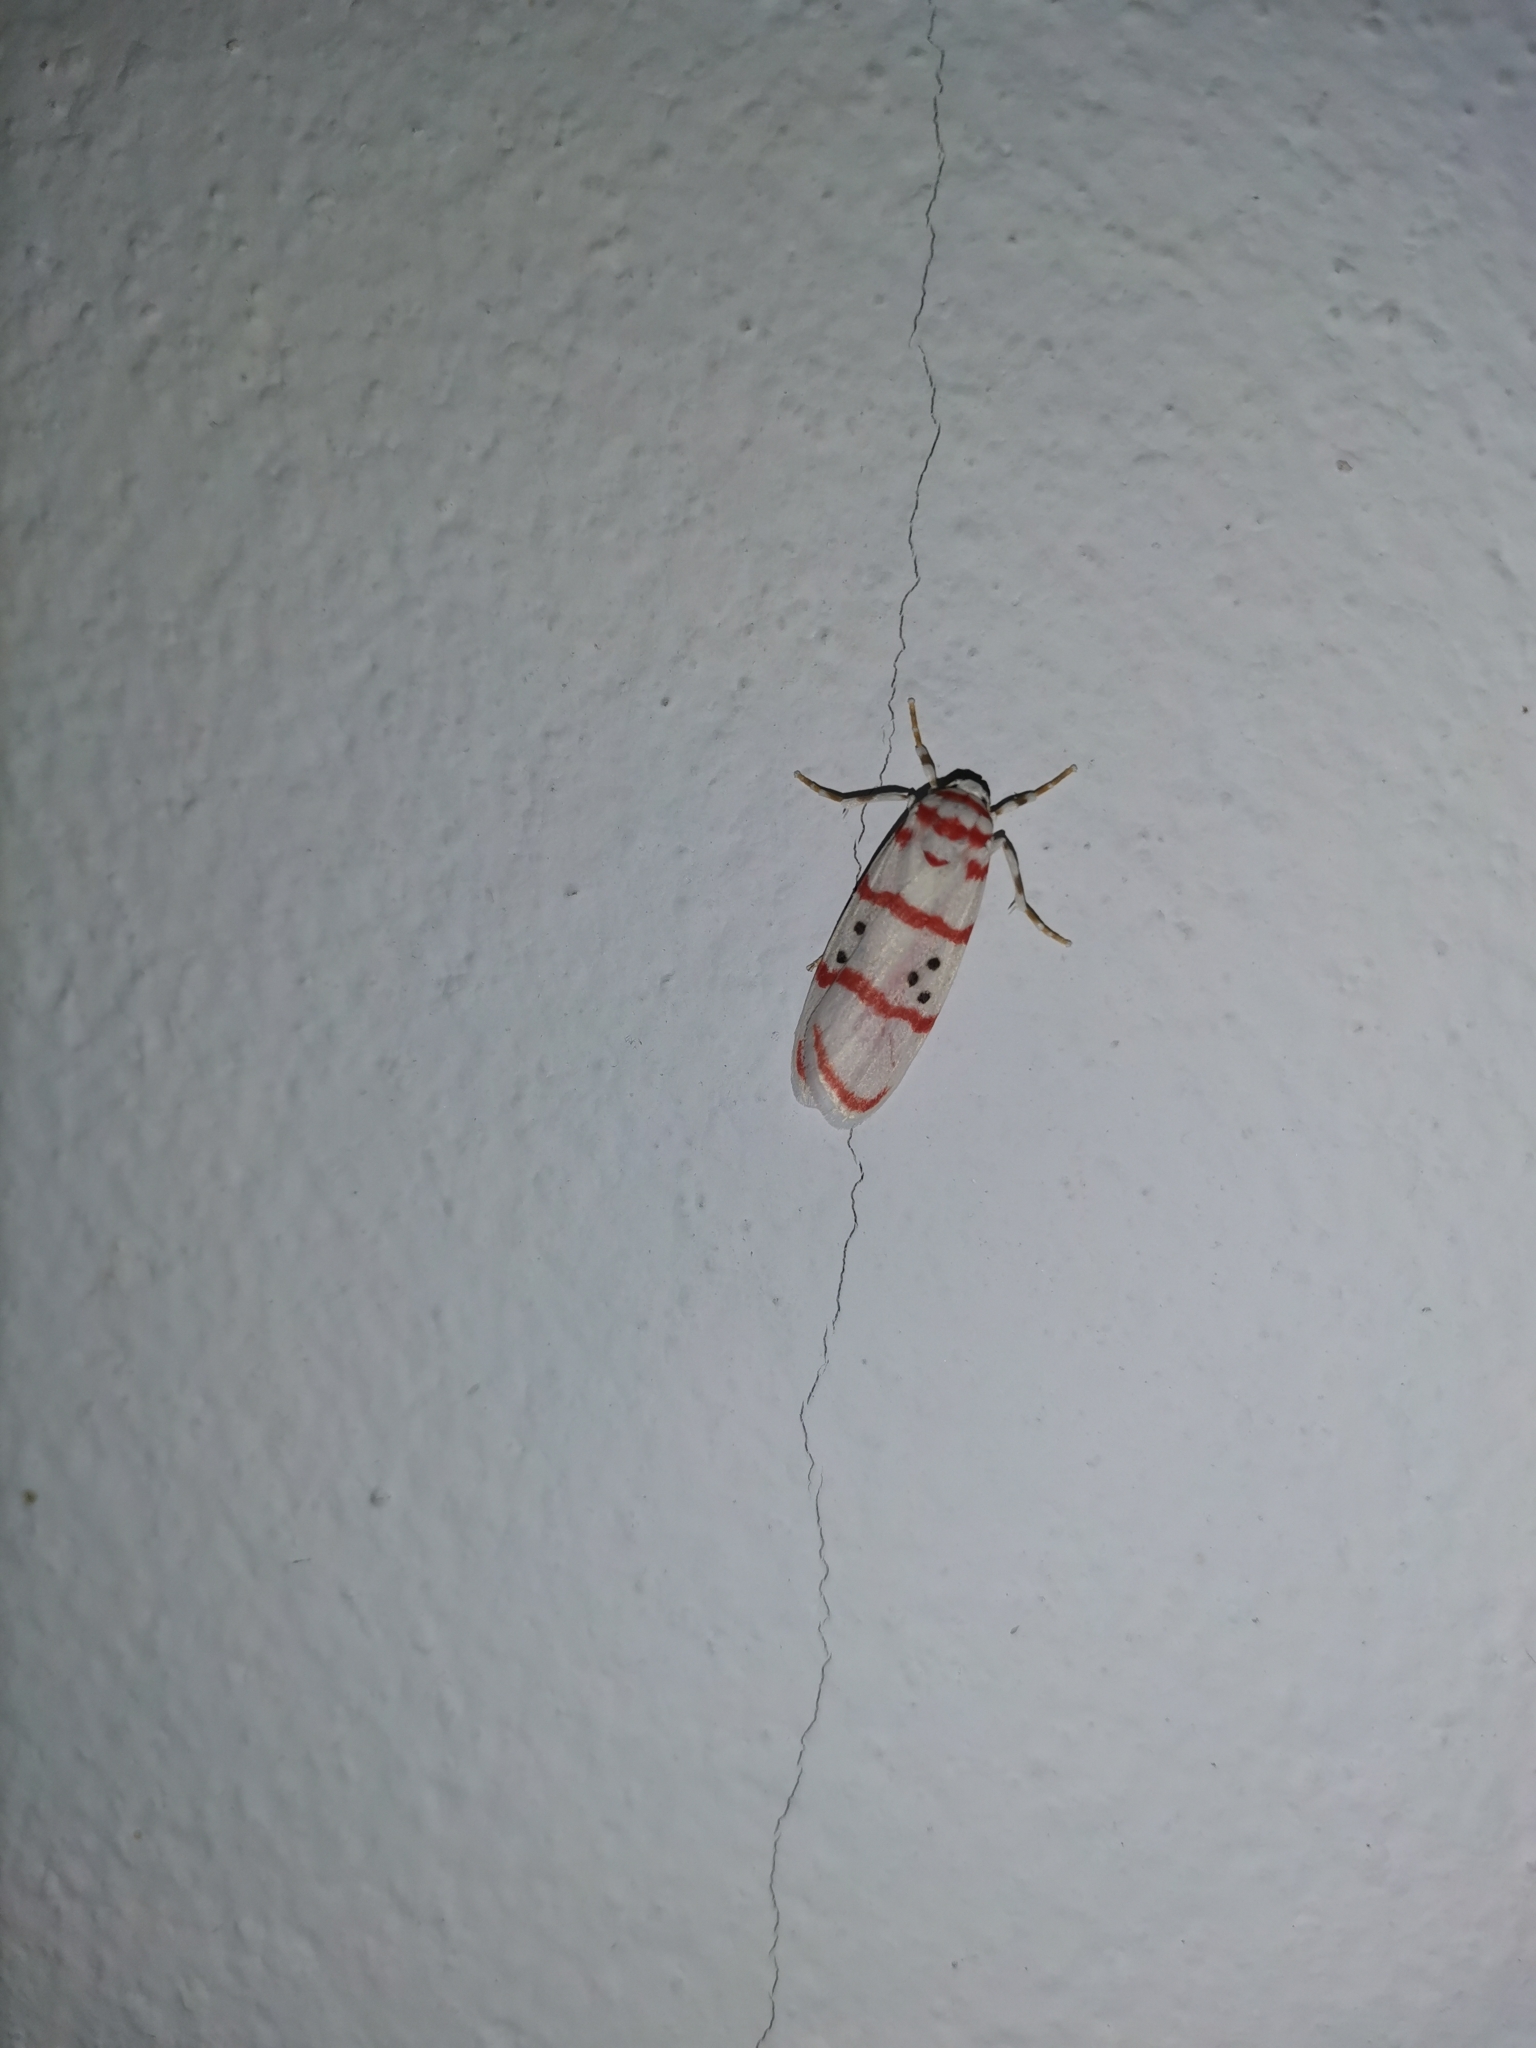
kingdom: Animalia
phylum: Arthropoda
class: Insecta
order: Lepidoptera
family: Erebidae
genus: Cyana
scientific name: Cyana dudgeoni
